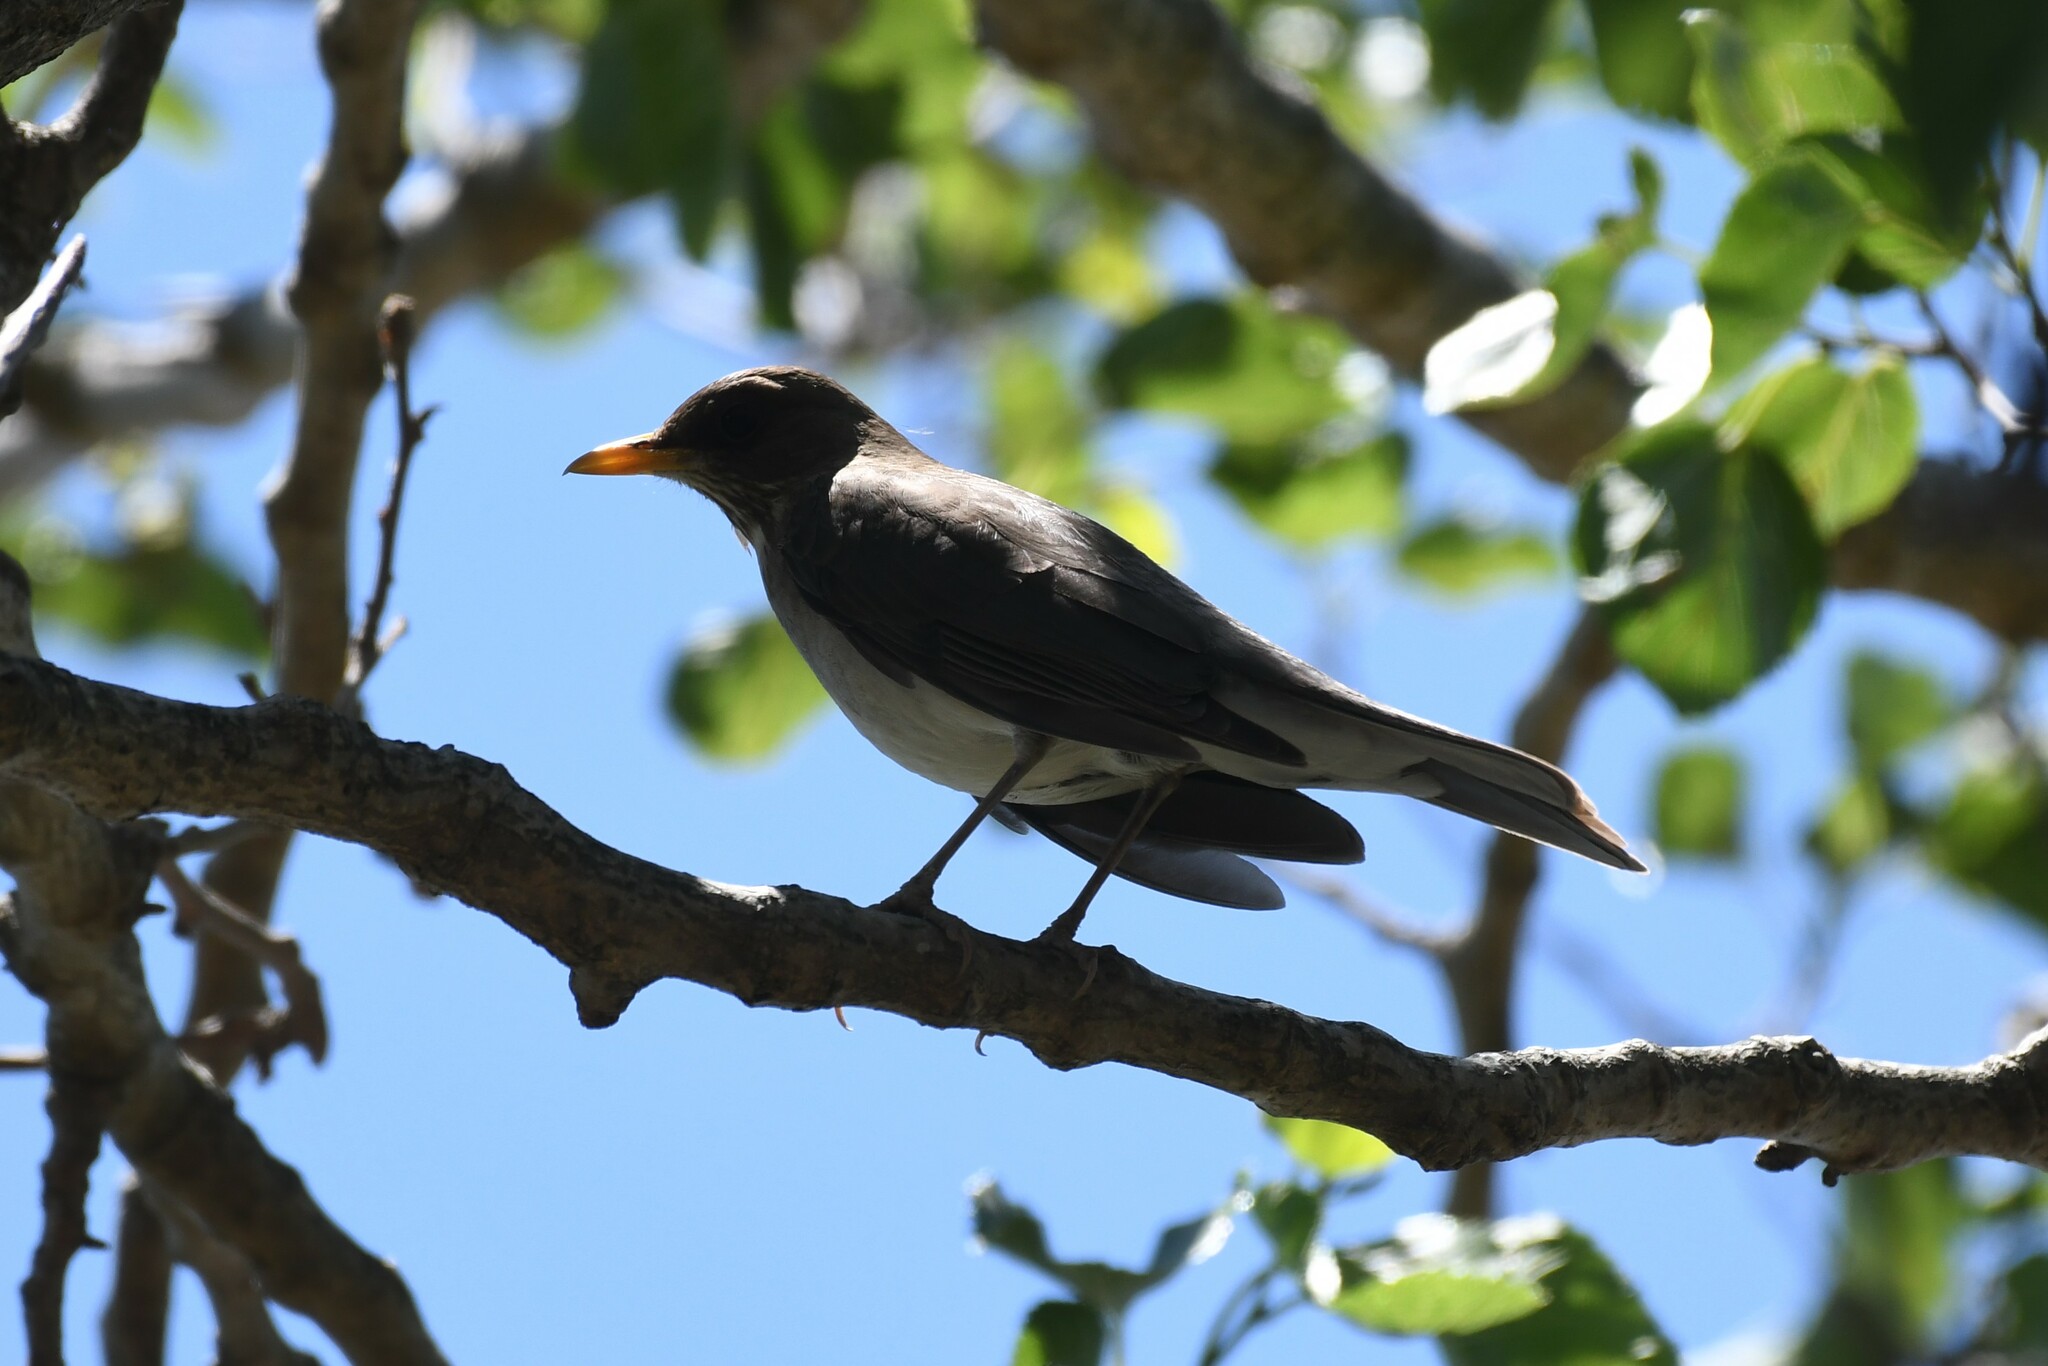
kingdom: Animalia
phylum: Chordata
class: Aves
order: Passeriformes
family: Turdidae
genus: Turdus
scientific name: Turdus amaurochalinus
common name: Creamy-bellied thrush
